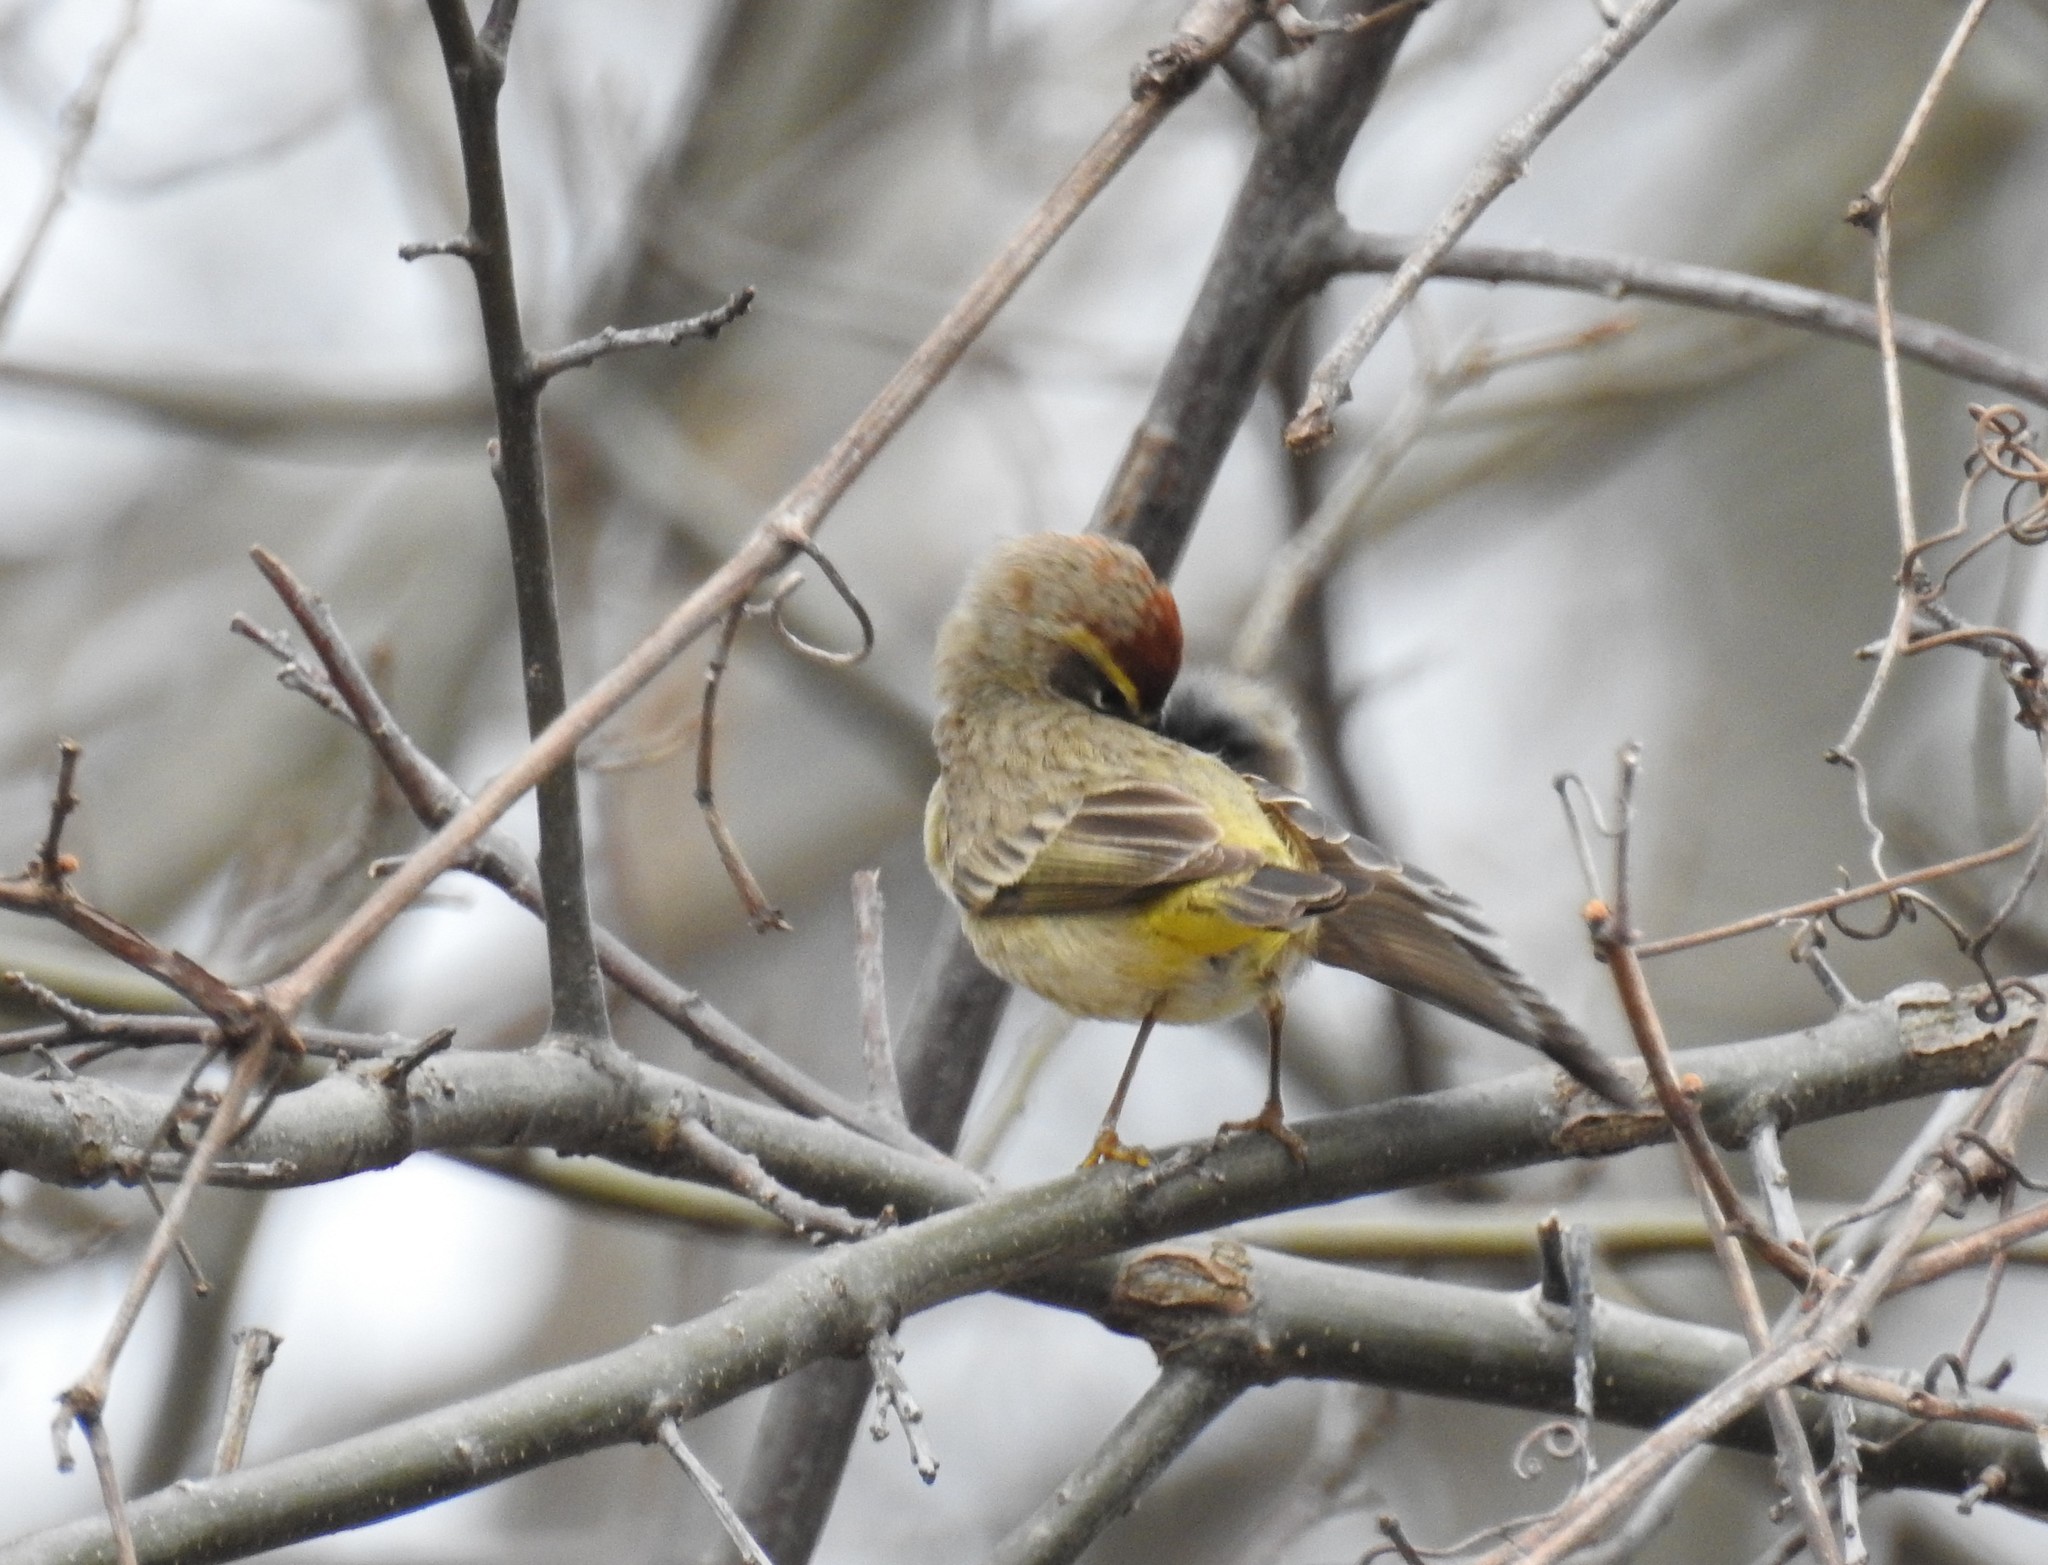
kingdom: Animalia
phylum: Chordata
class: Aves
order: Passeriformes
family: Parulidae
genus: Setophaga
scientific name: Setophaga palmarum
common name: Palm warbler
